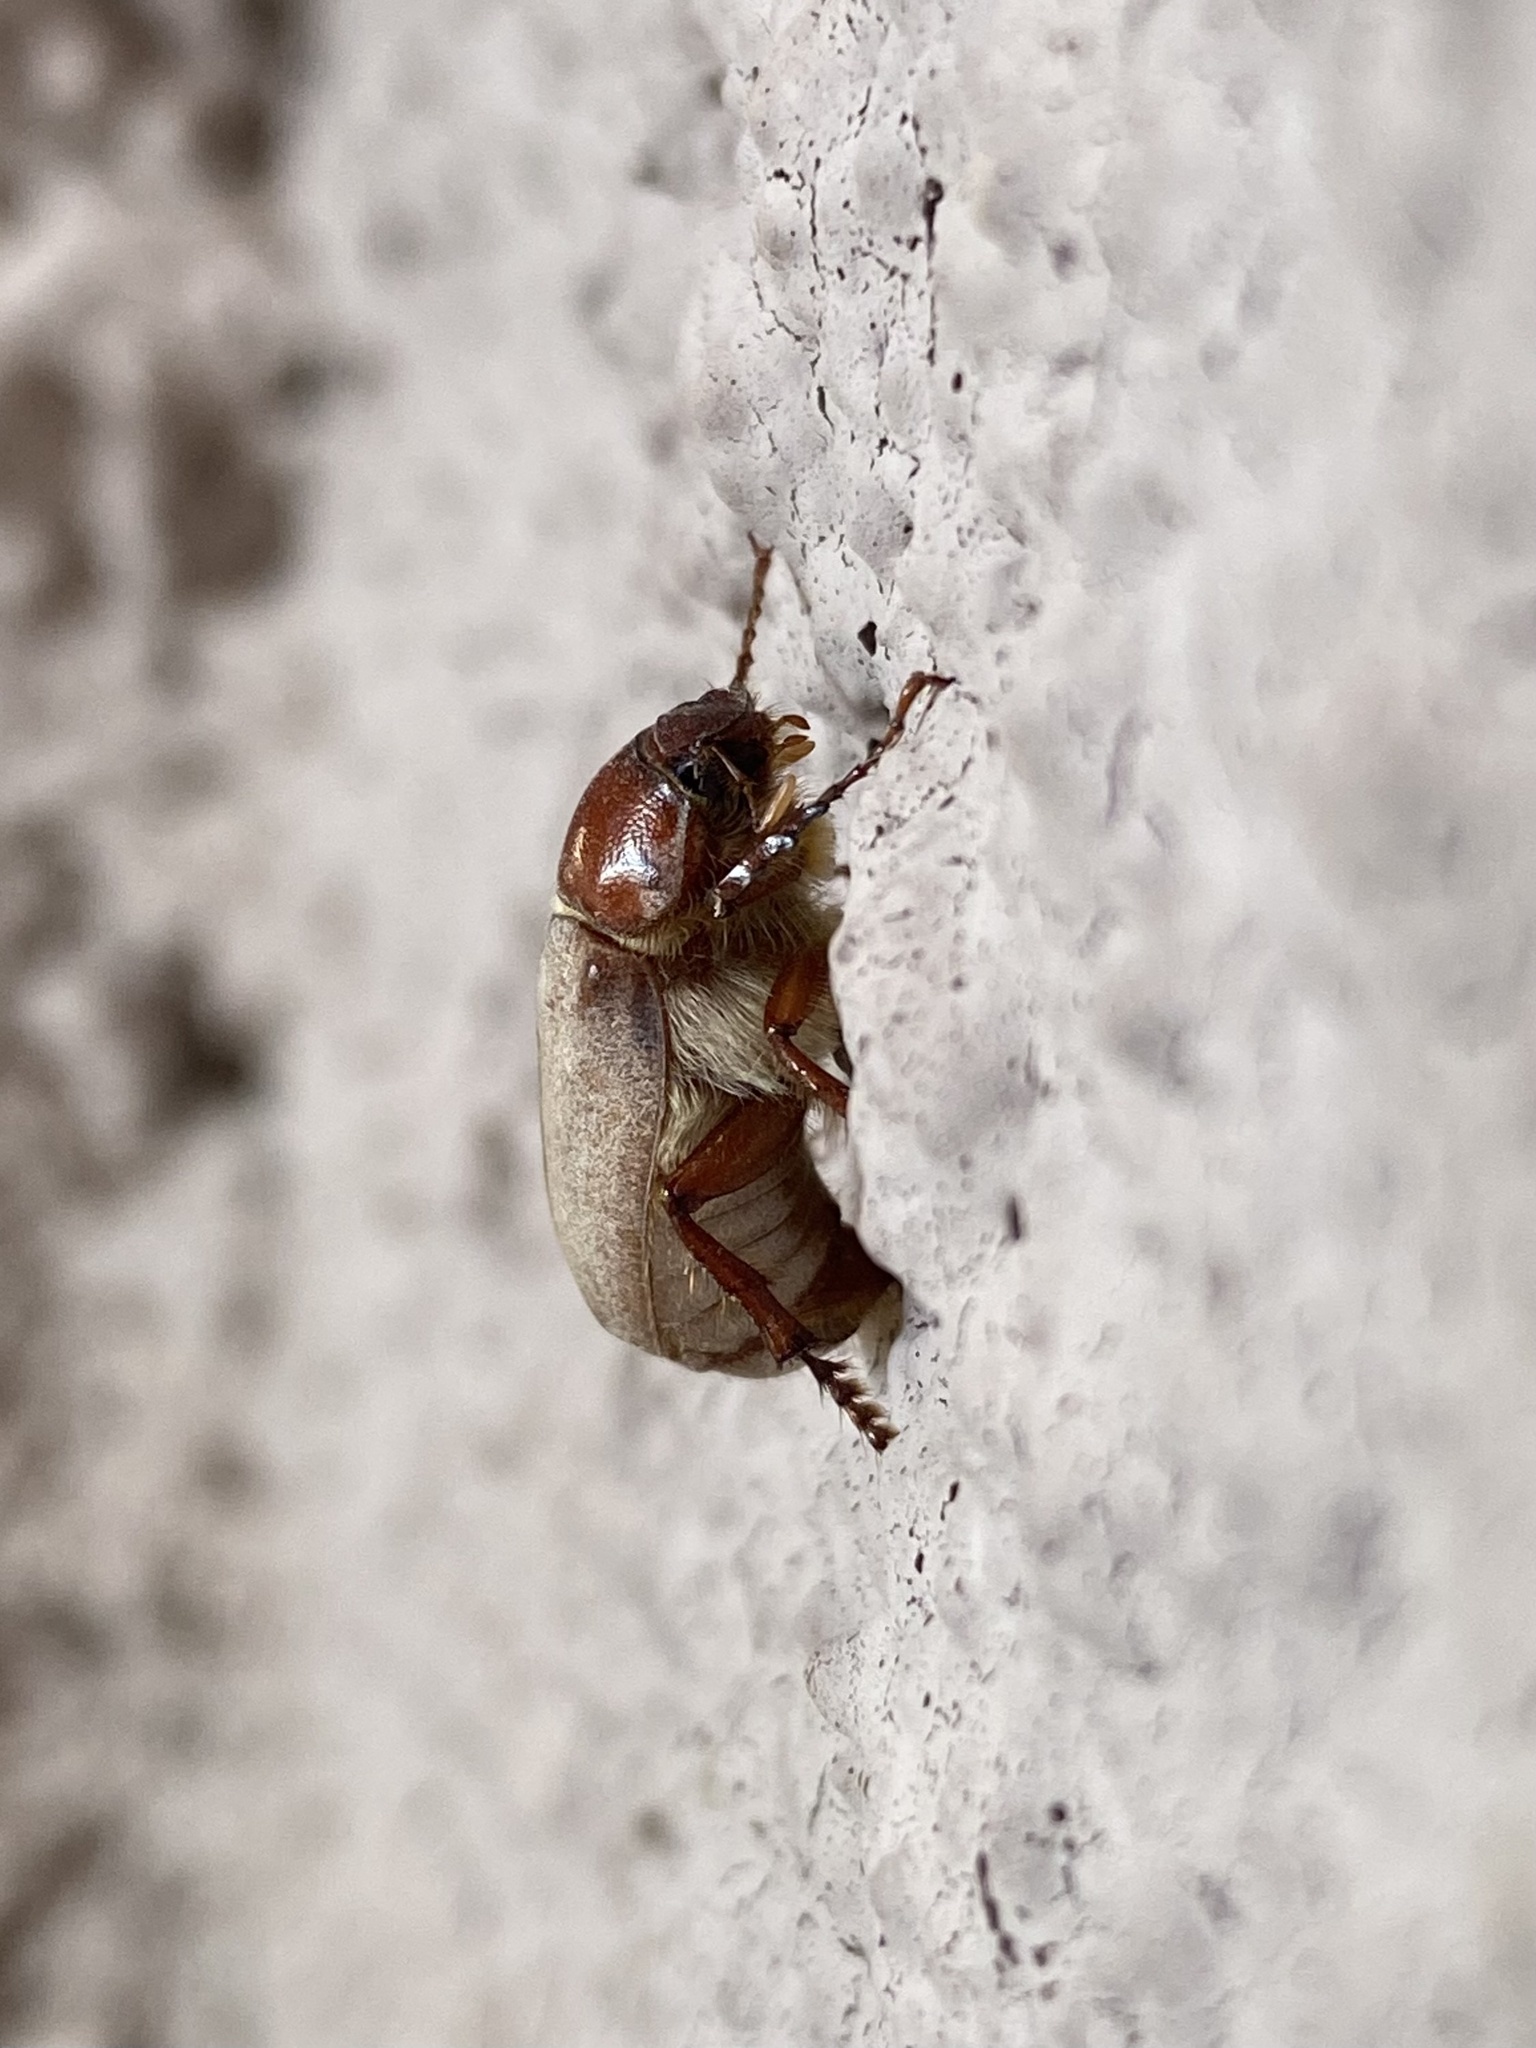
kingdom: Animalia
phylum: Arthropoda
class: Insecta
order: Coleoptera
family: Scarabaeidae
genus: Listrochelus
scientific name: Listrochelus scoparius
